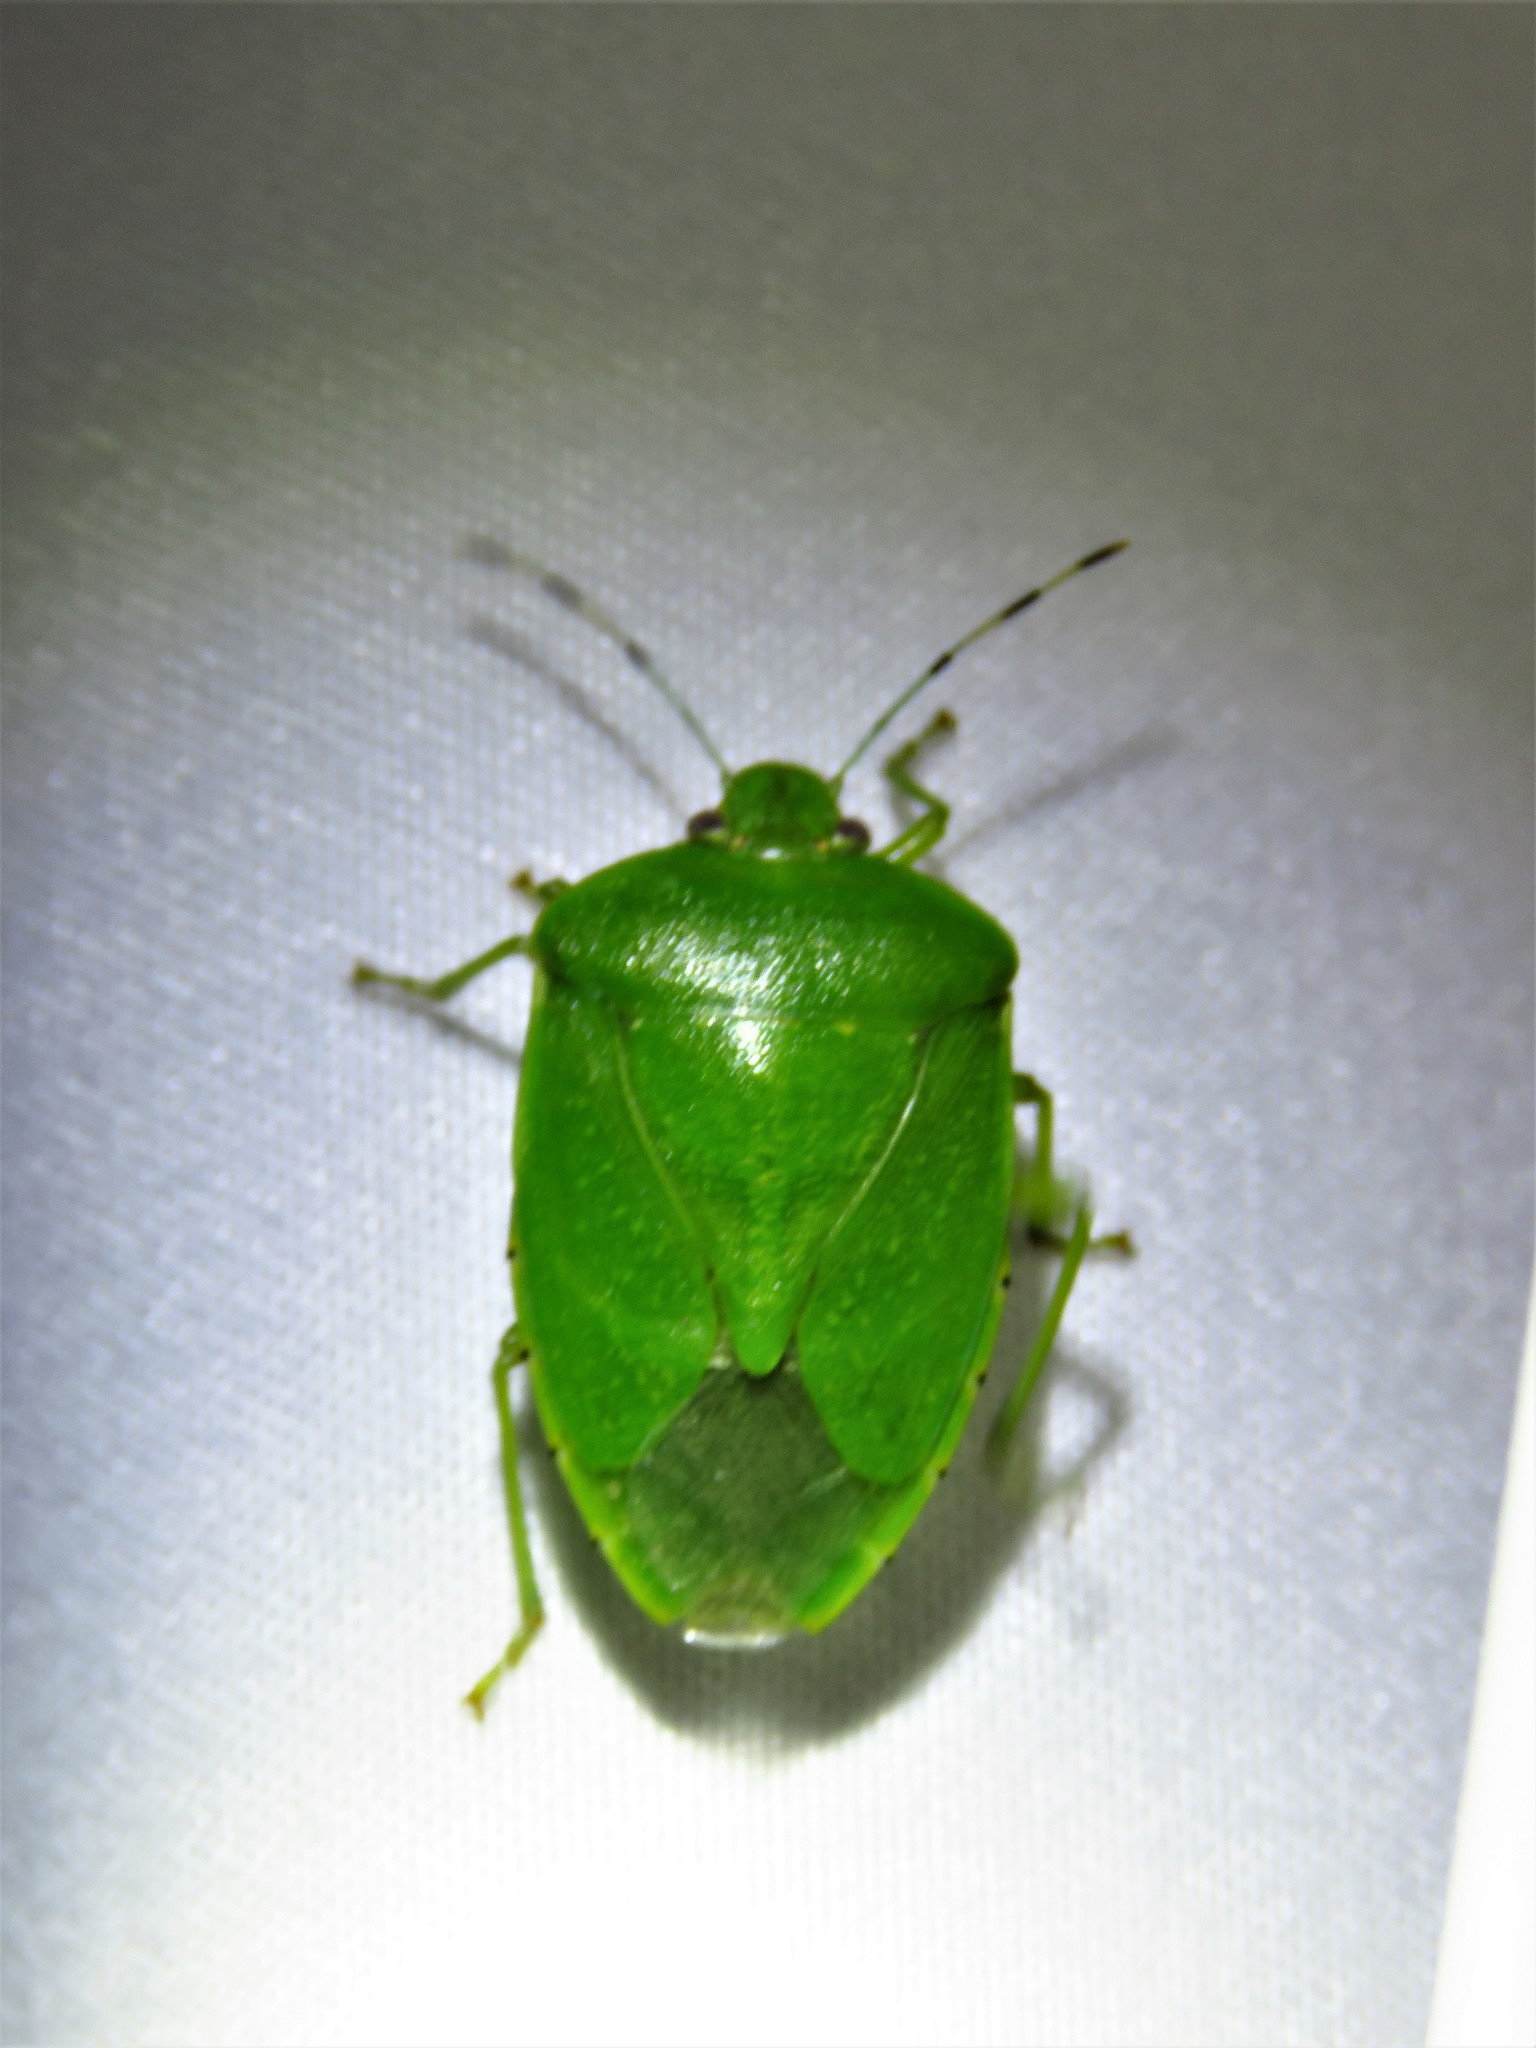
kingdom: Animalia
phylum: Arthropoda
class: Insecta
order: Hemiptera
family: Pentatomidae
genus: Chinavia
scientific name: Chinavia hilaris
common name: Green stink bug
